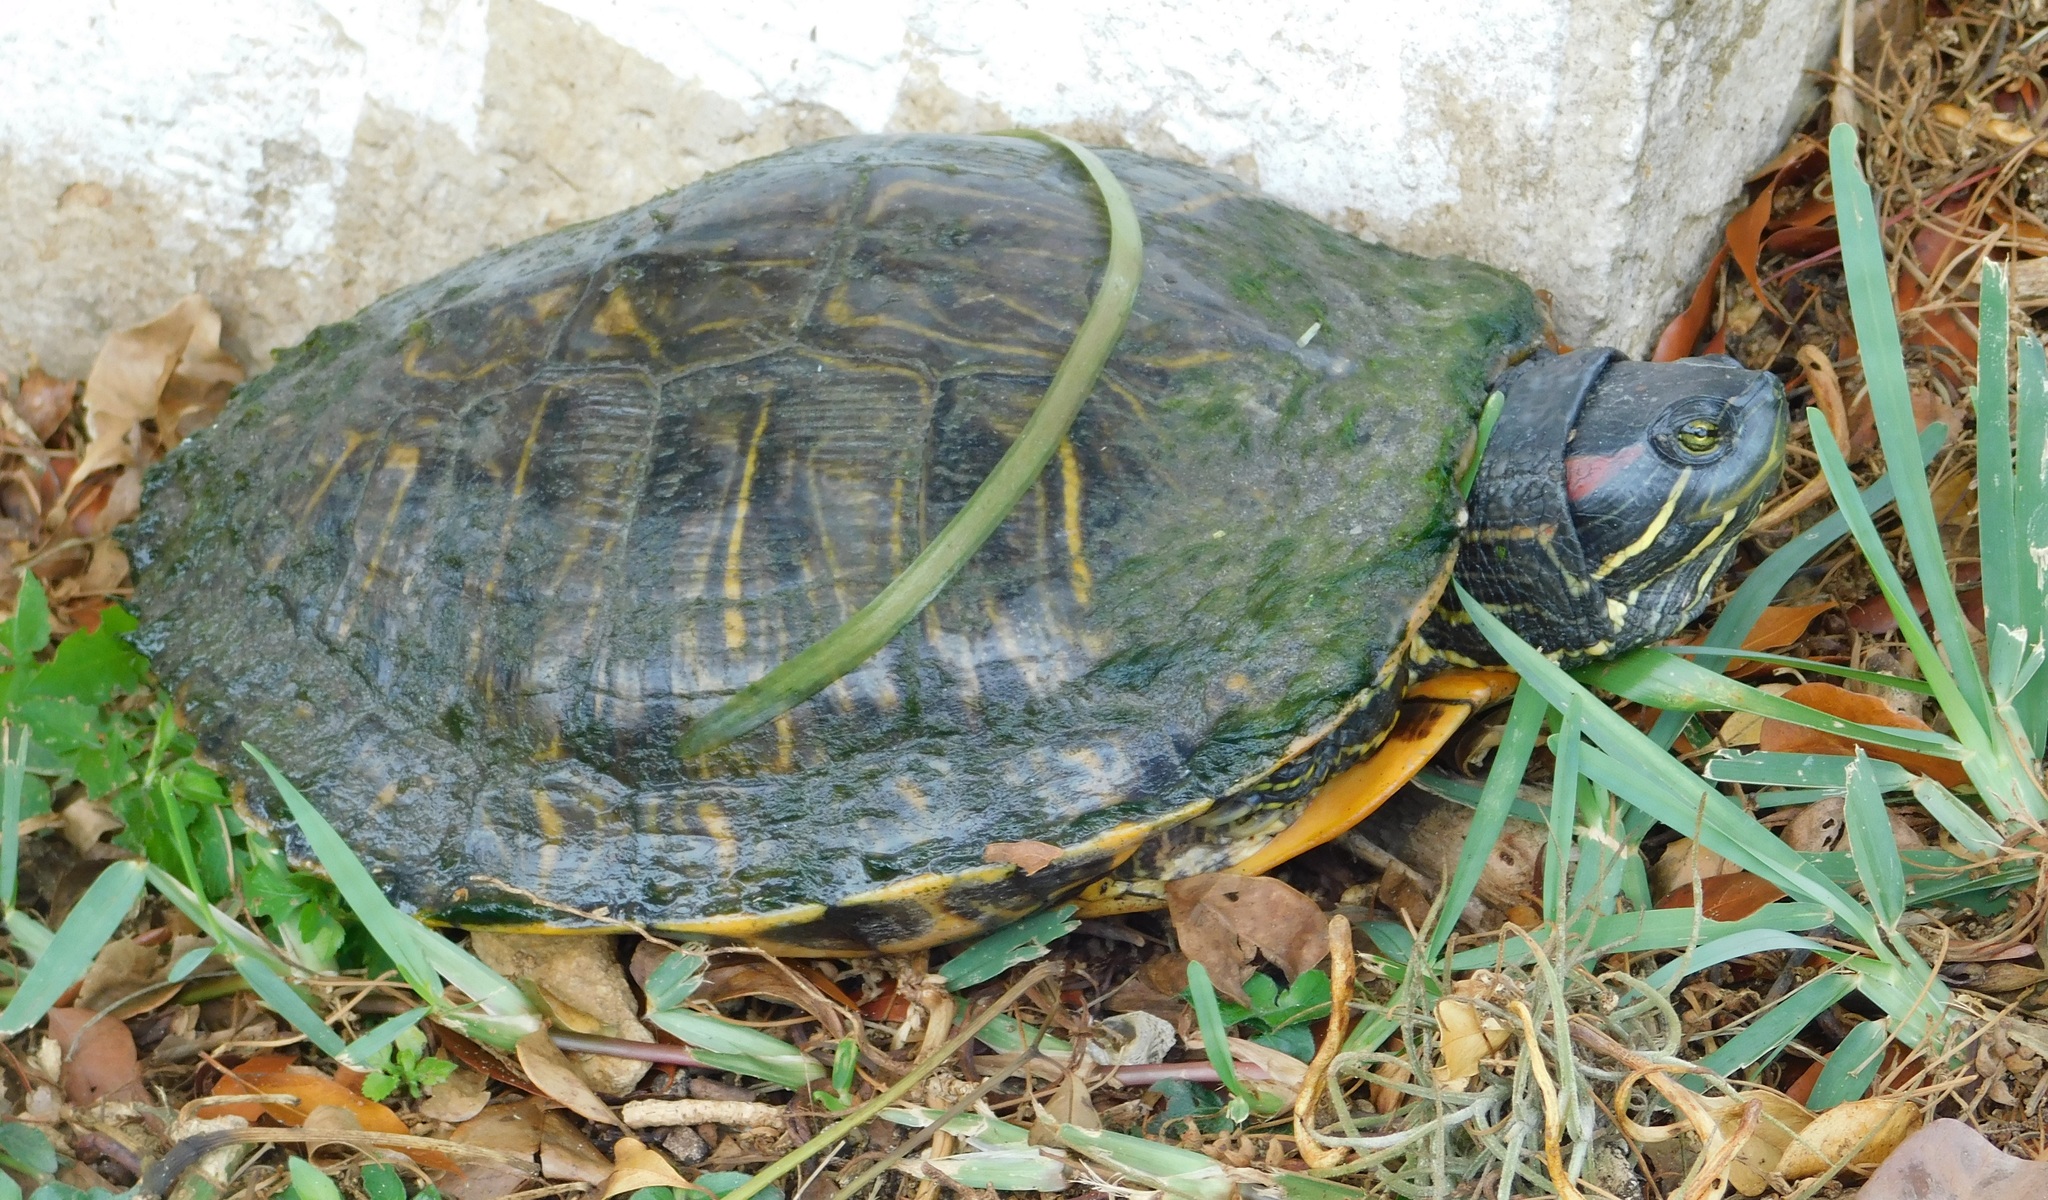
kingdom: Animalia
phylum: Chordata
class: Testudines
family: Emydidae
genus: Trachemys
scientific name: Trachemys scripta
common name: Slider
